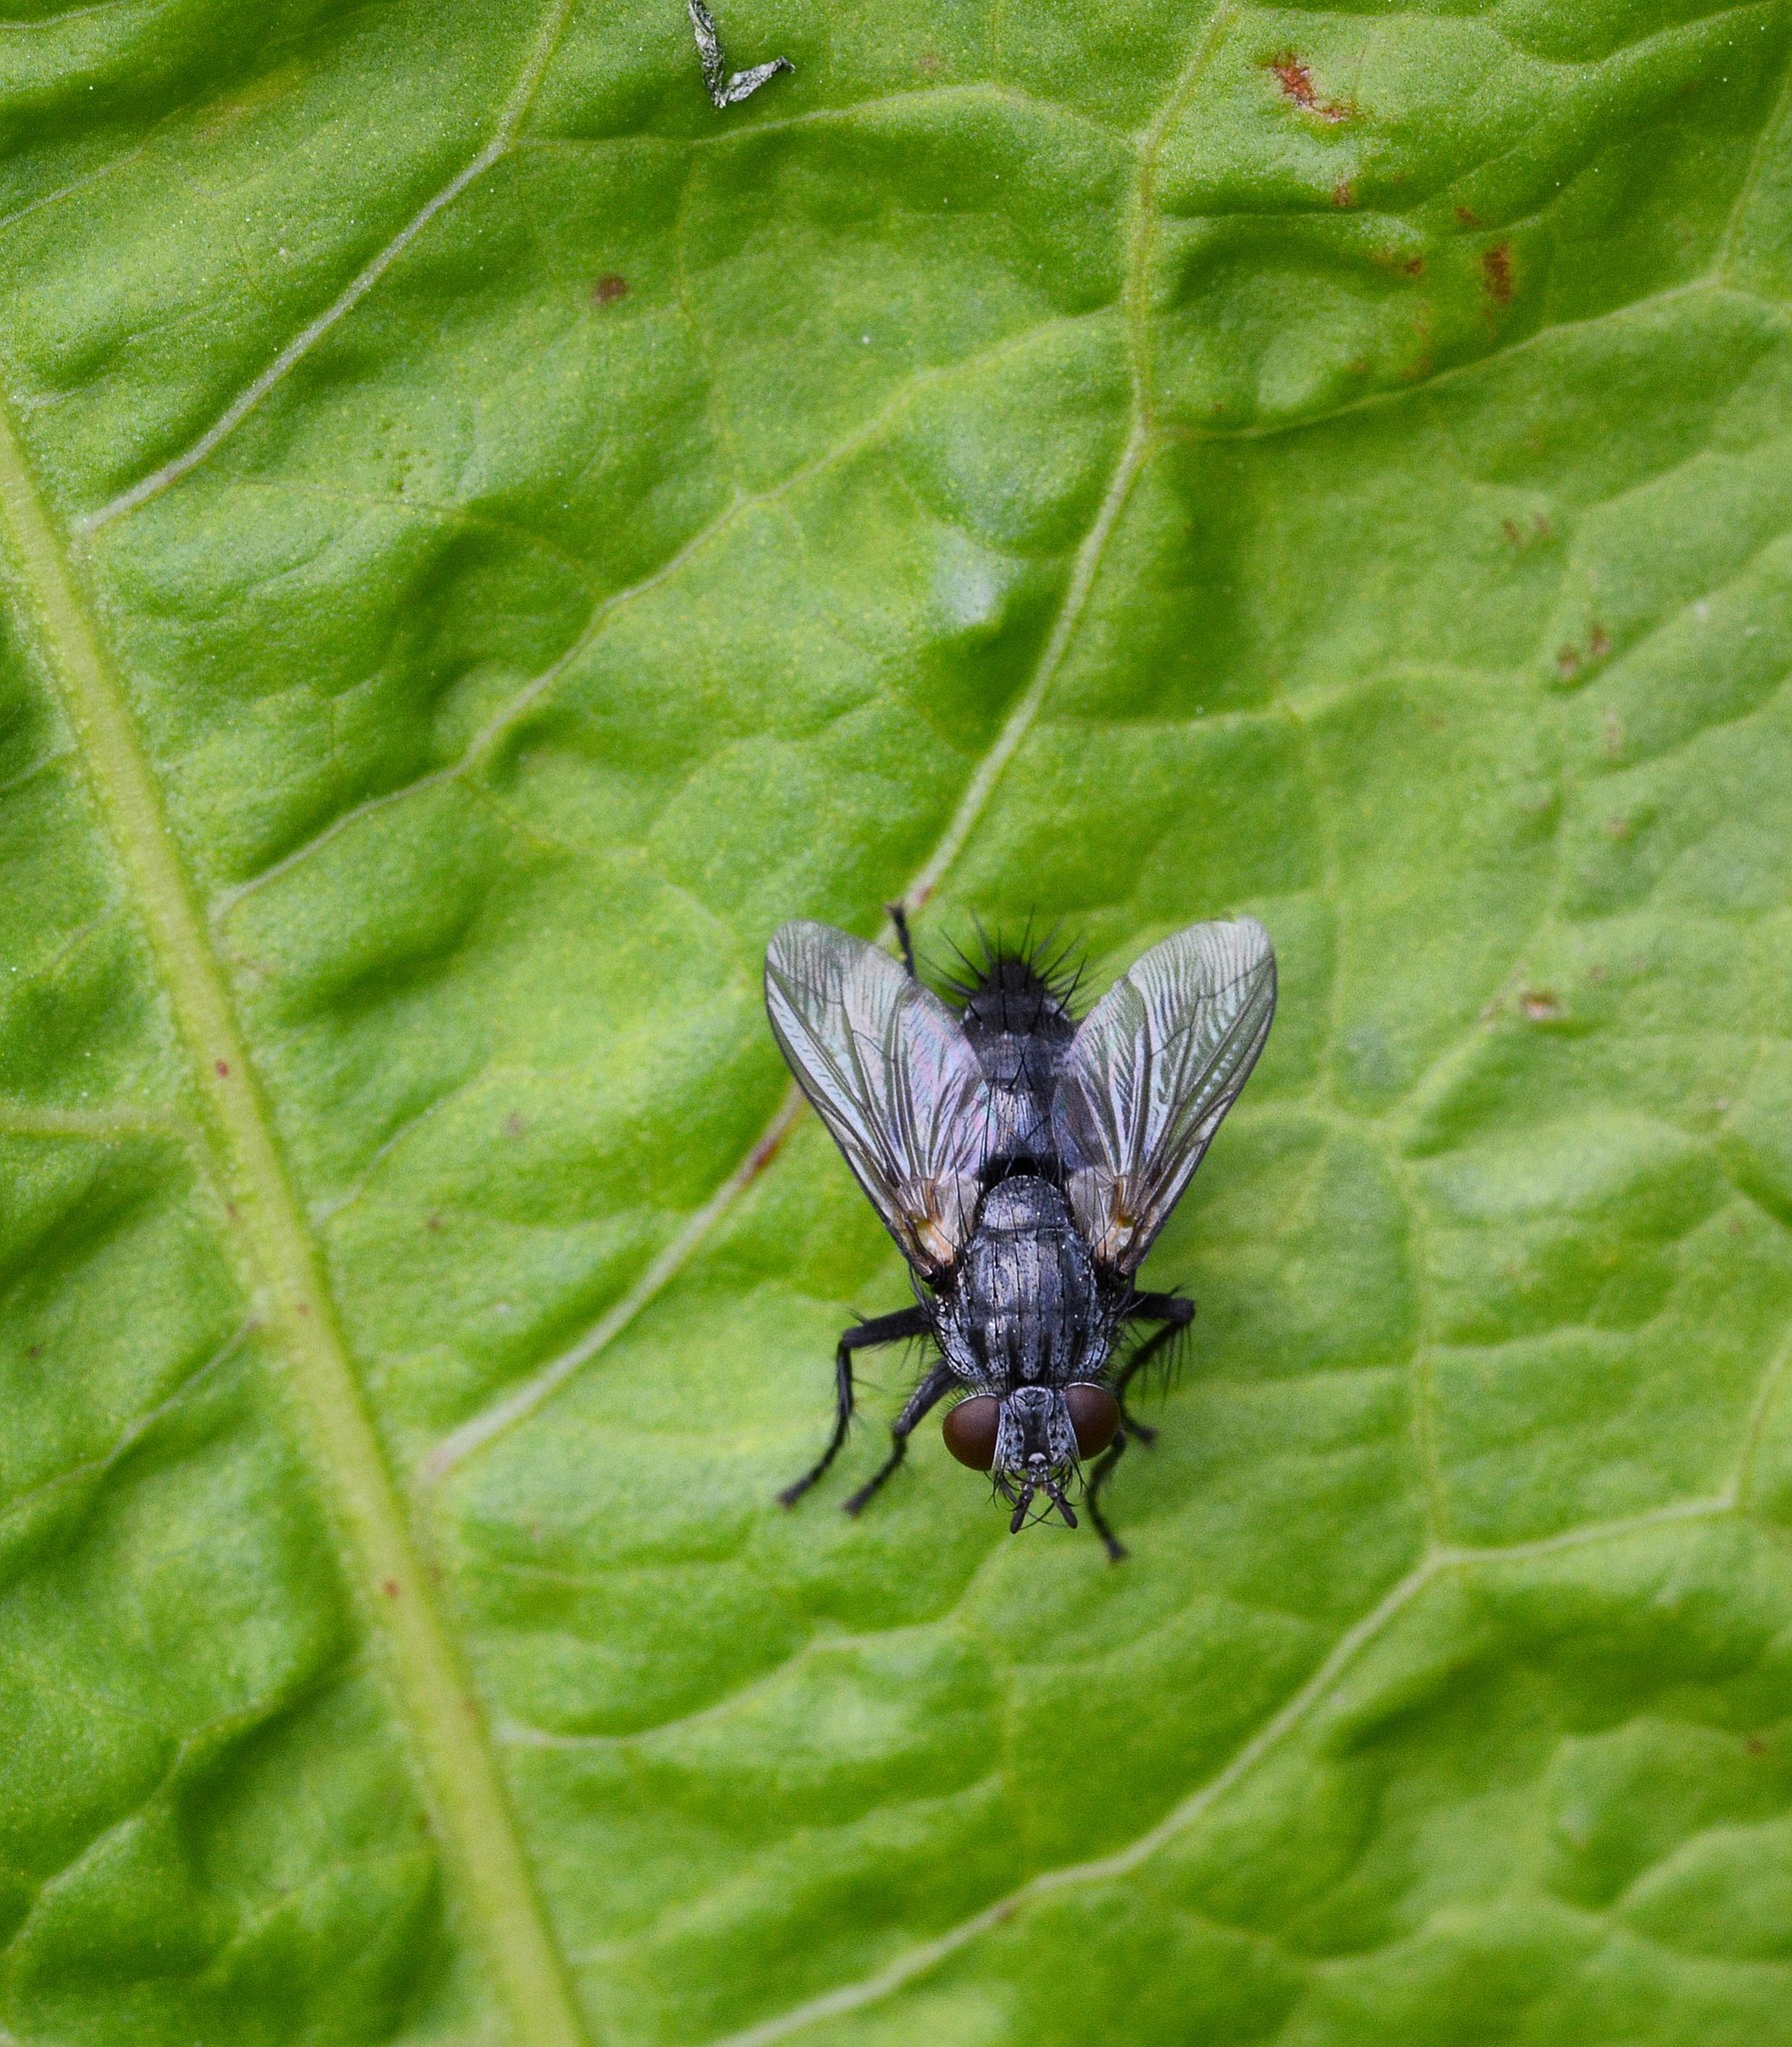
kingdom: Animalia
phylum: Arthropoda
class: Insecta
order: Diptera
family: Tachinidae
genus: Voria
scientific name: Voria ruralis
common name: Parasitic fly
